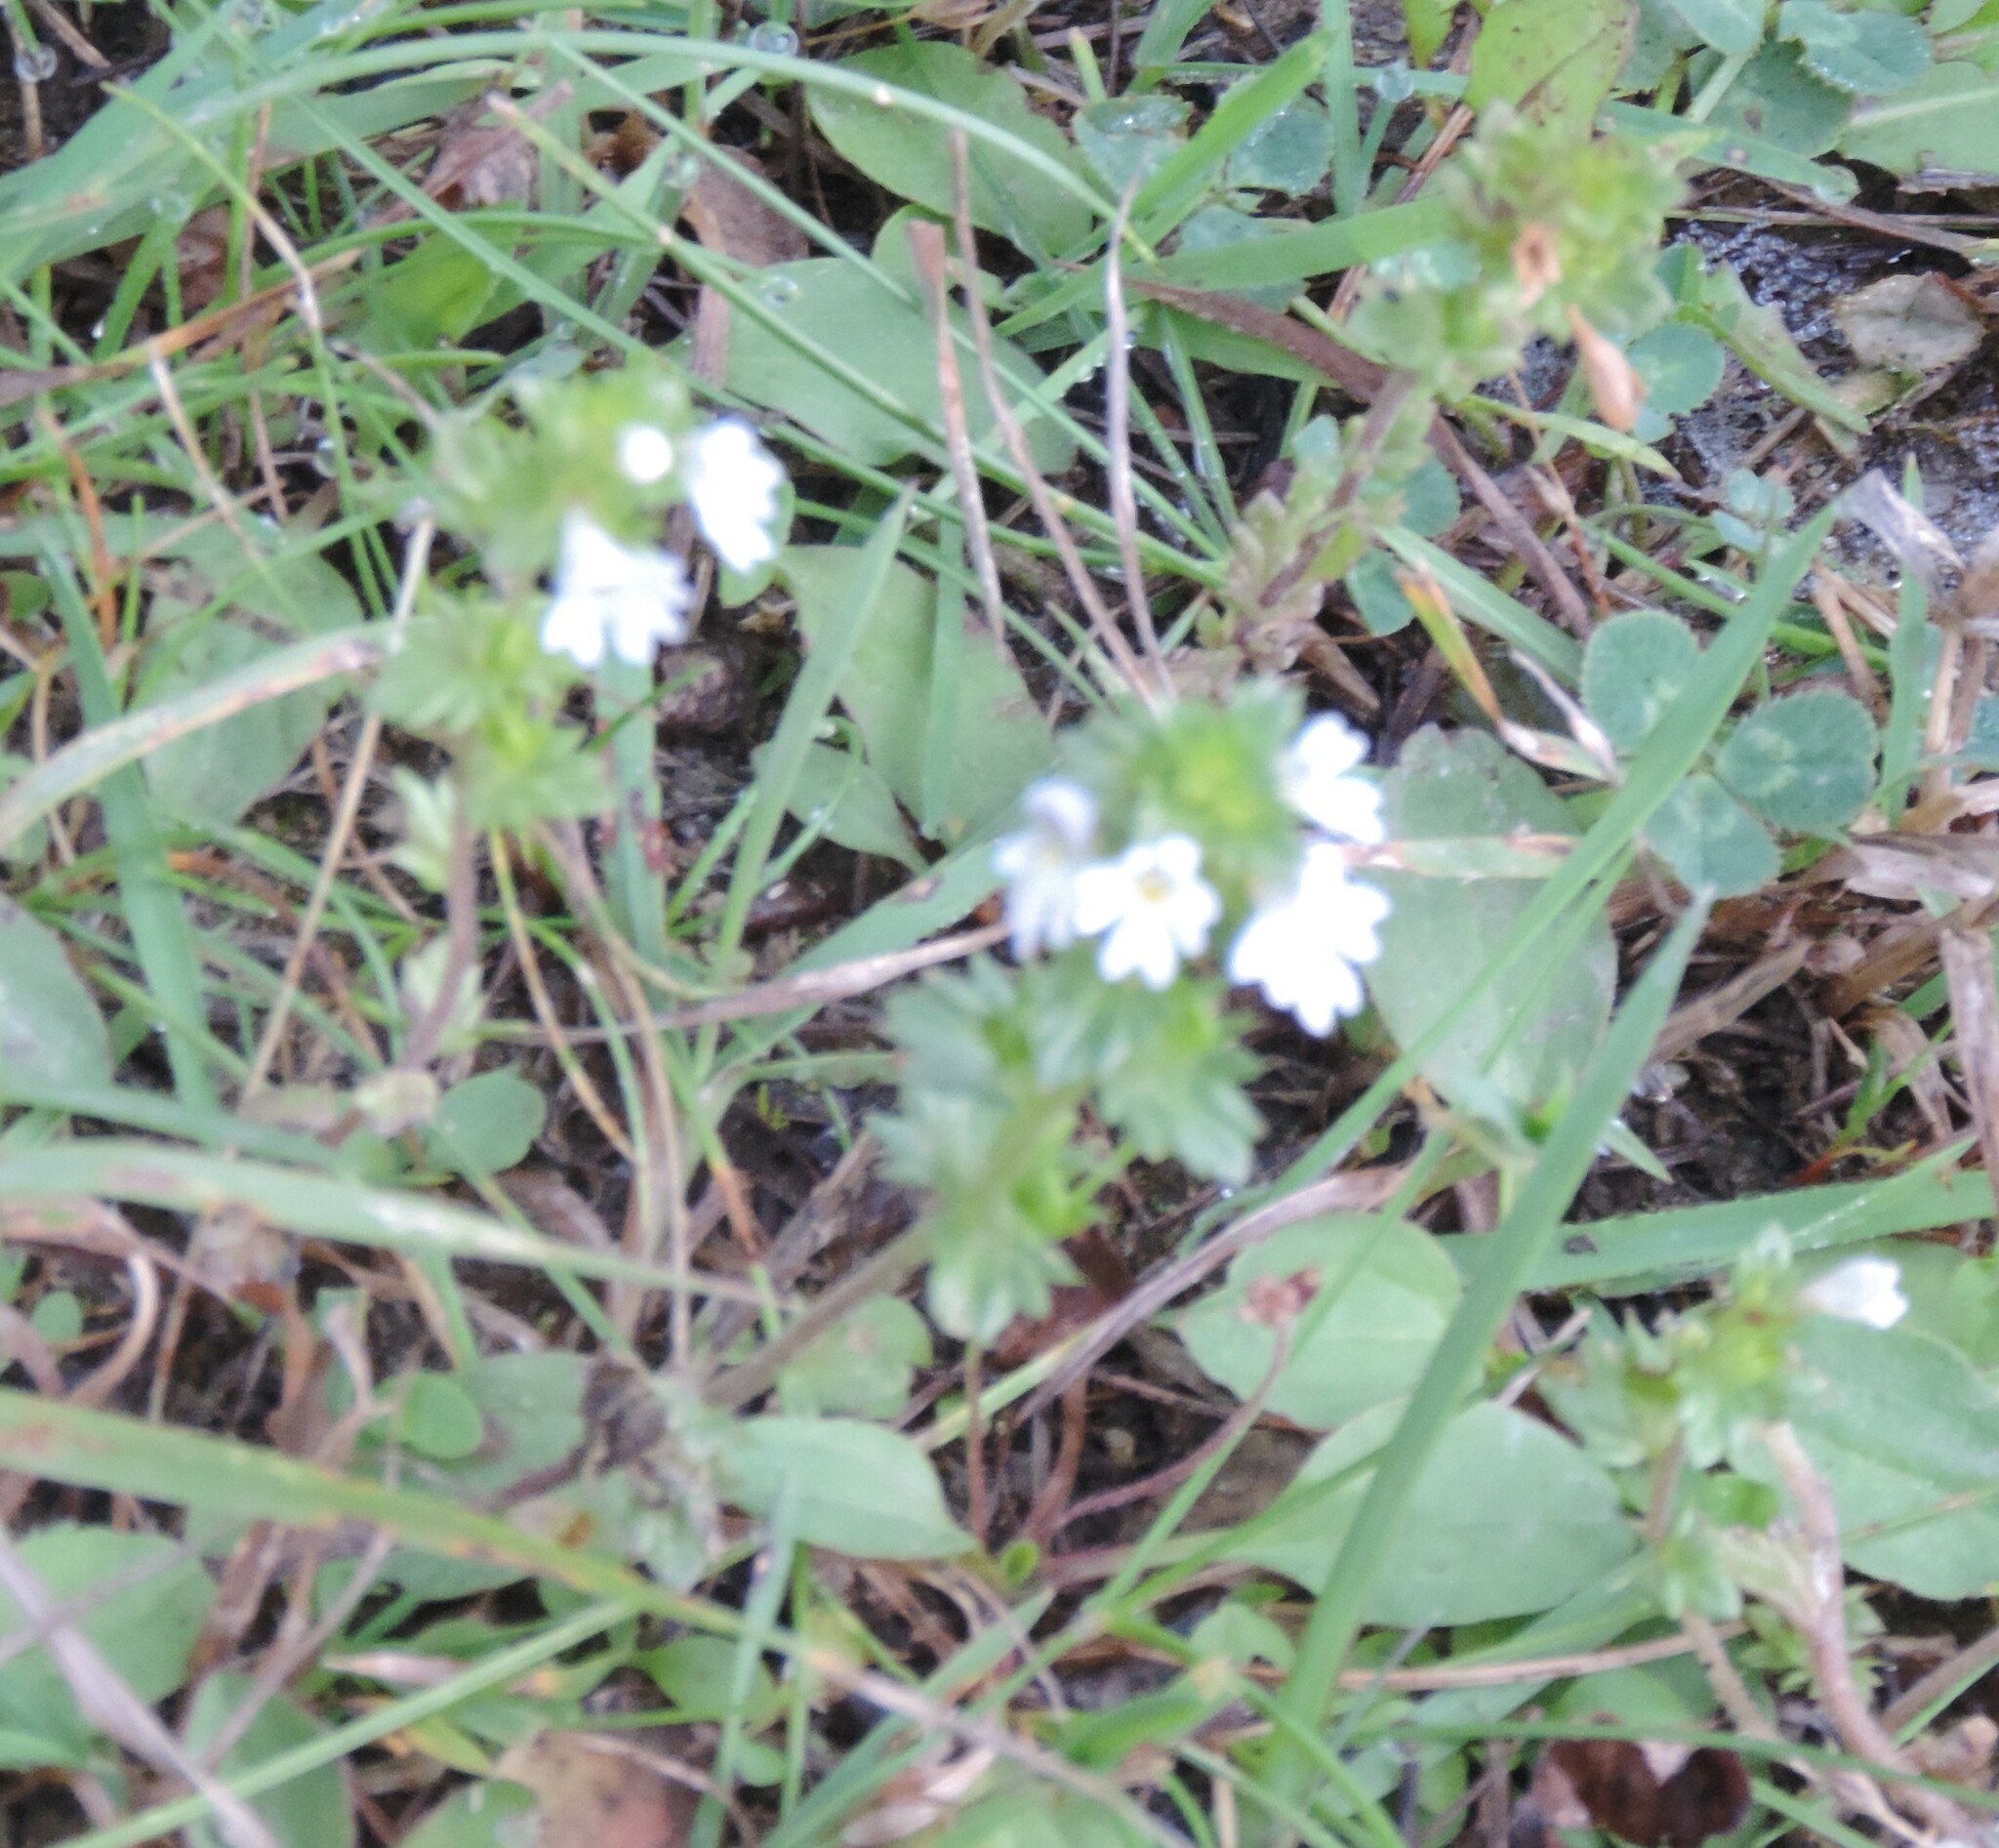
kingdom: Plantae
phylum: Tracheophyta
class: Magnoliopsida
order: Lamiales
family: Orobanchaceae
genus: Euphrasia
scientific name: Euphrasia nemorosa
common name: Common eyebright
